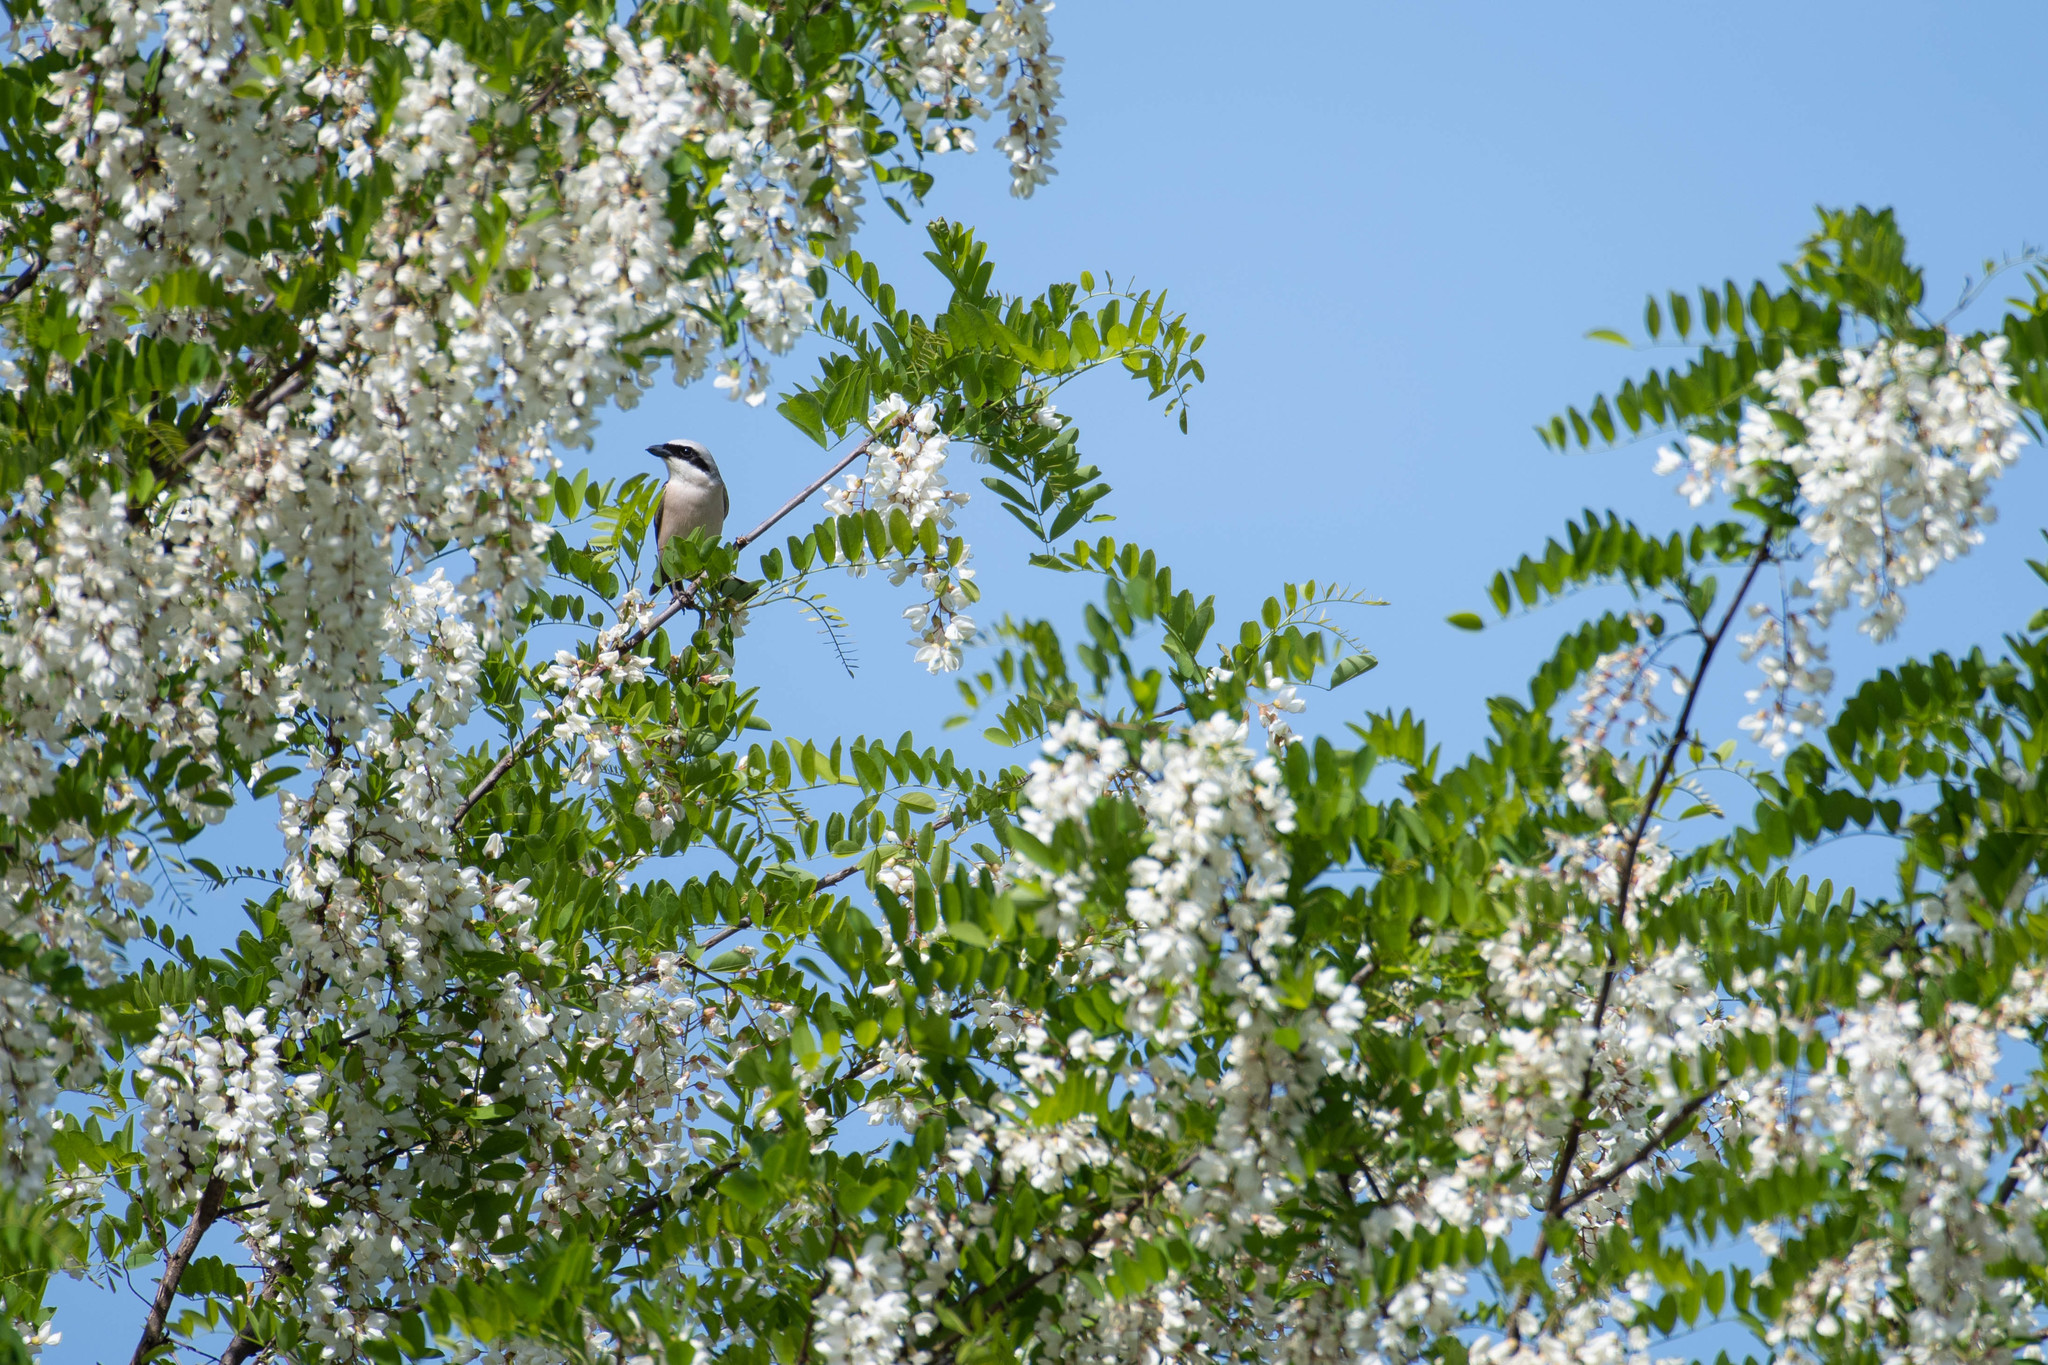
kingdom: Animalia
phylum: Chordata
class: Aves
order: Passeriformes
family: Laniidae
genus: Lanius
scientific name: Lanius collurio
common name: Red-backed shrike
